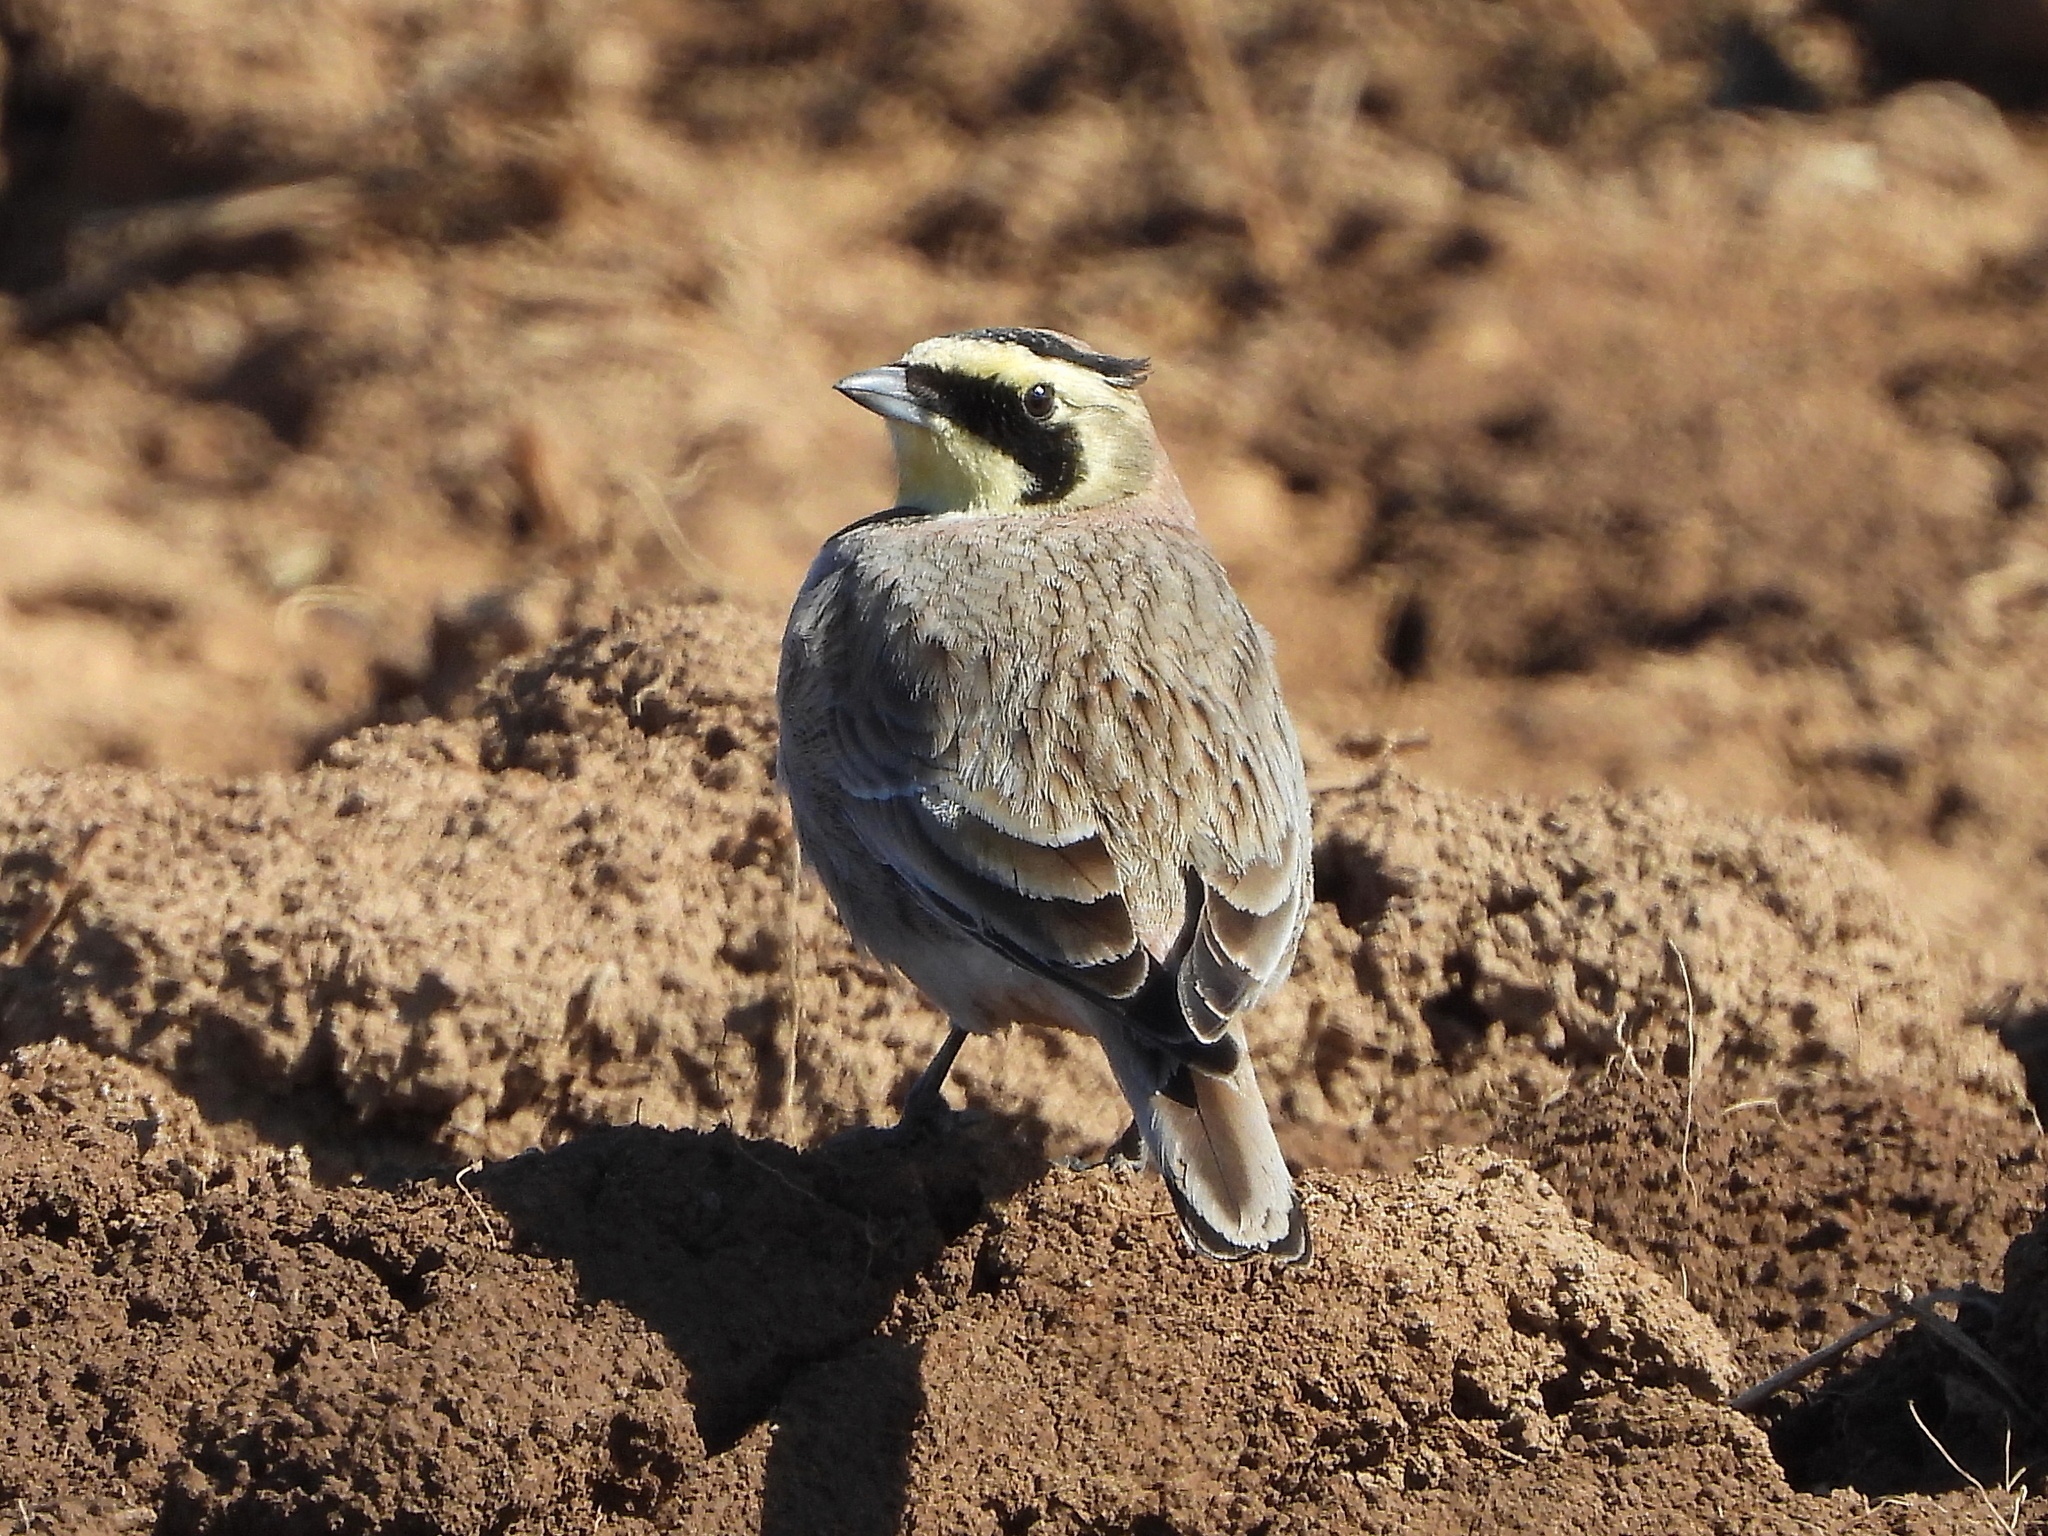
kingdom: Animalia
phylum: Chordata
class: Aves
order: Passeriformes
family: Alaudidae
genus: Eremophila
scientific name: Eremophila alpestris
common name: Horned lark
